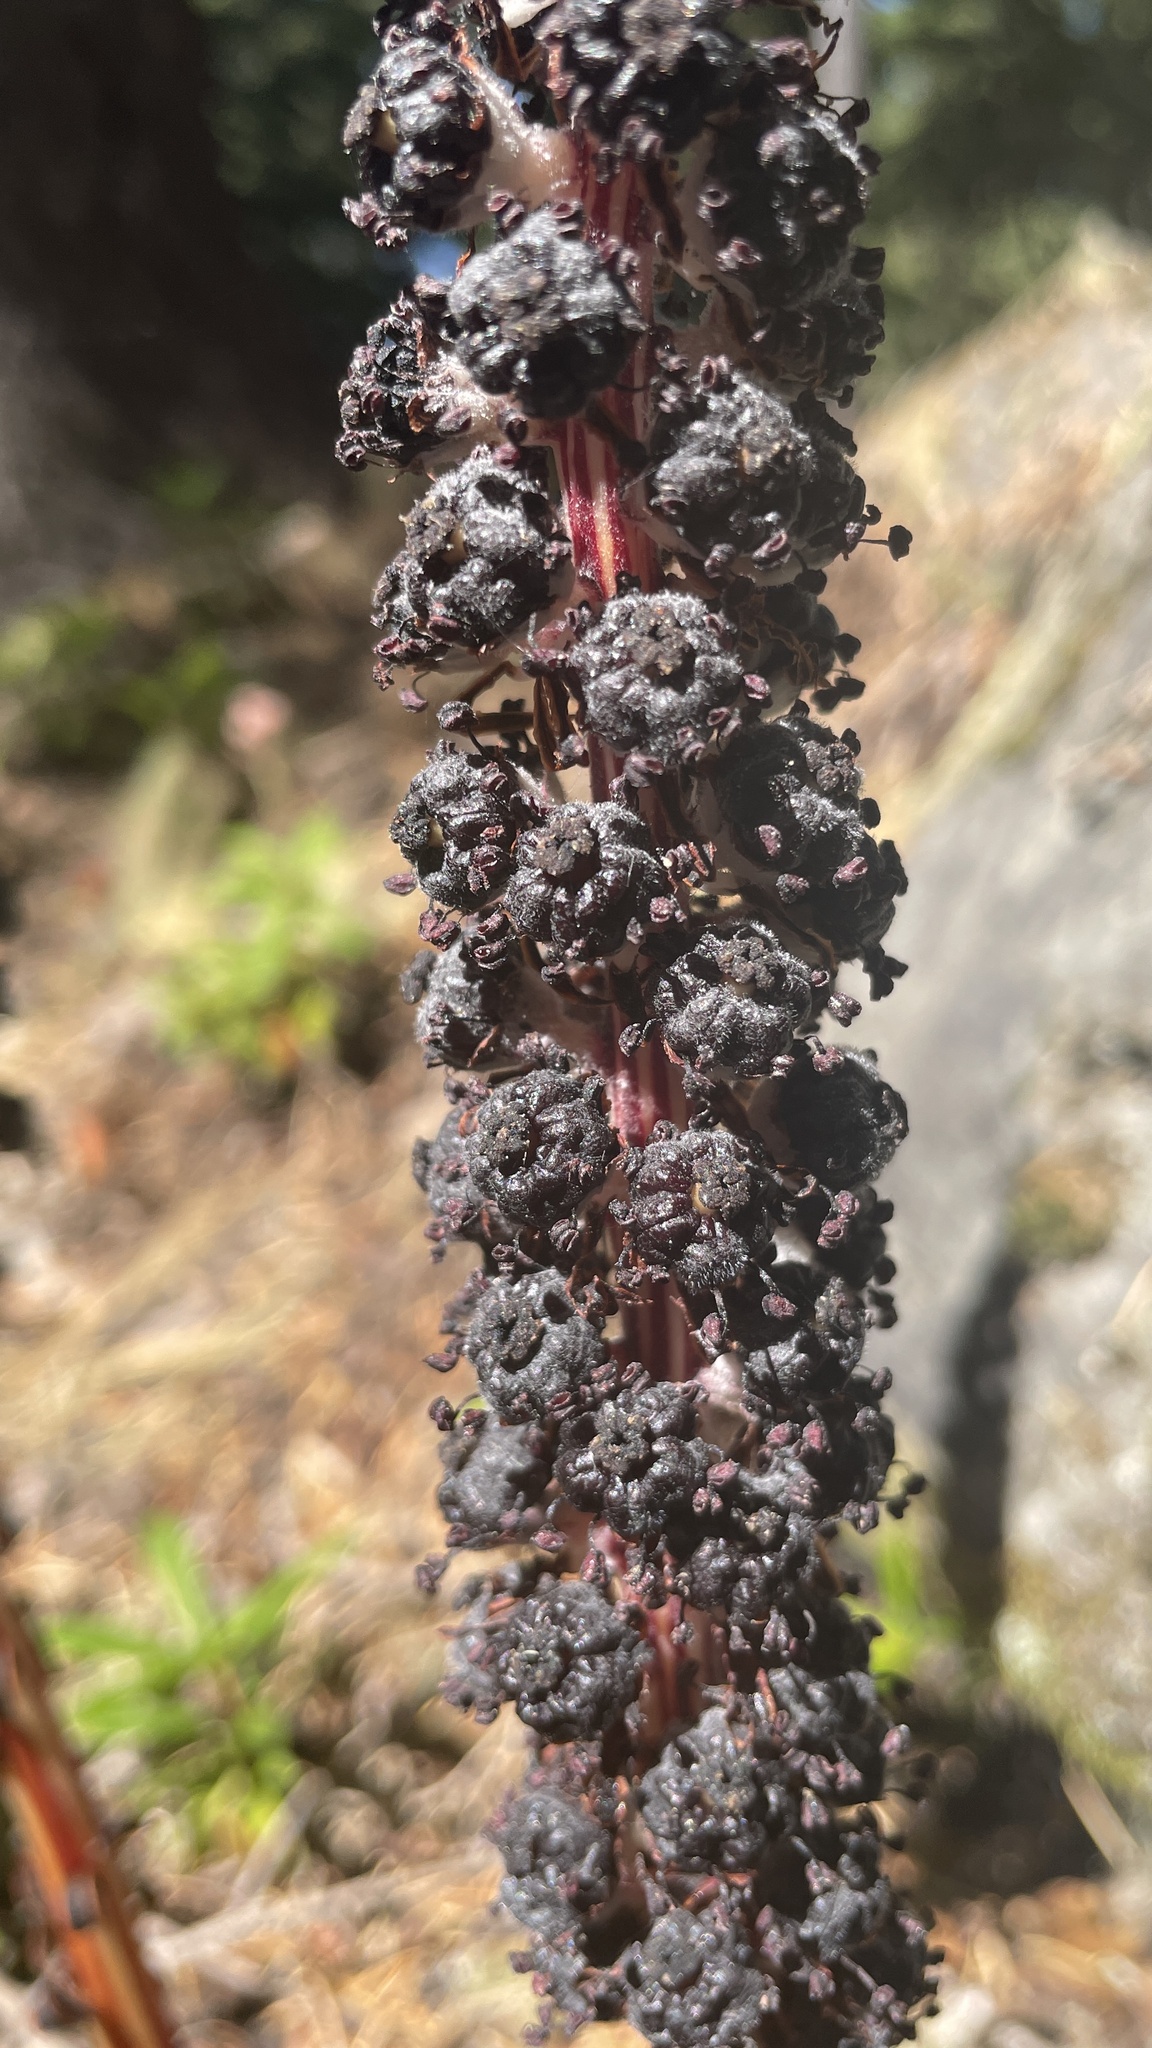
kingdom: Plantae
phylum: Tracheophyta
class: Magnoliopsida
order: Ericales
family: Ericaceae
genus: Allotropa
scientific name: Allotropa virgata
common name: Candy-striped allotropa
